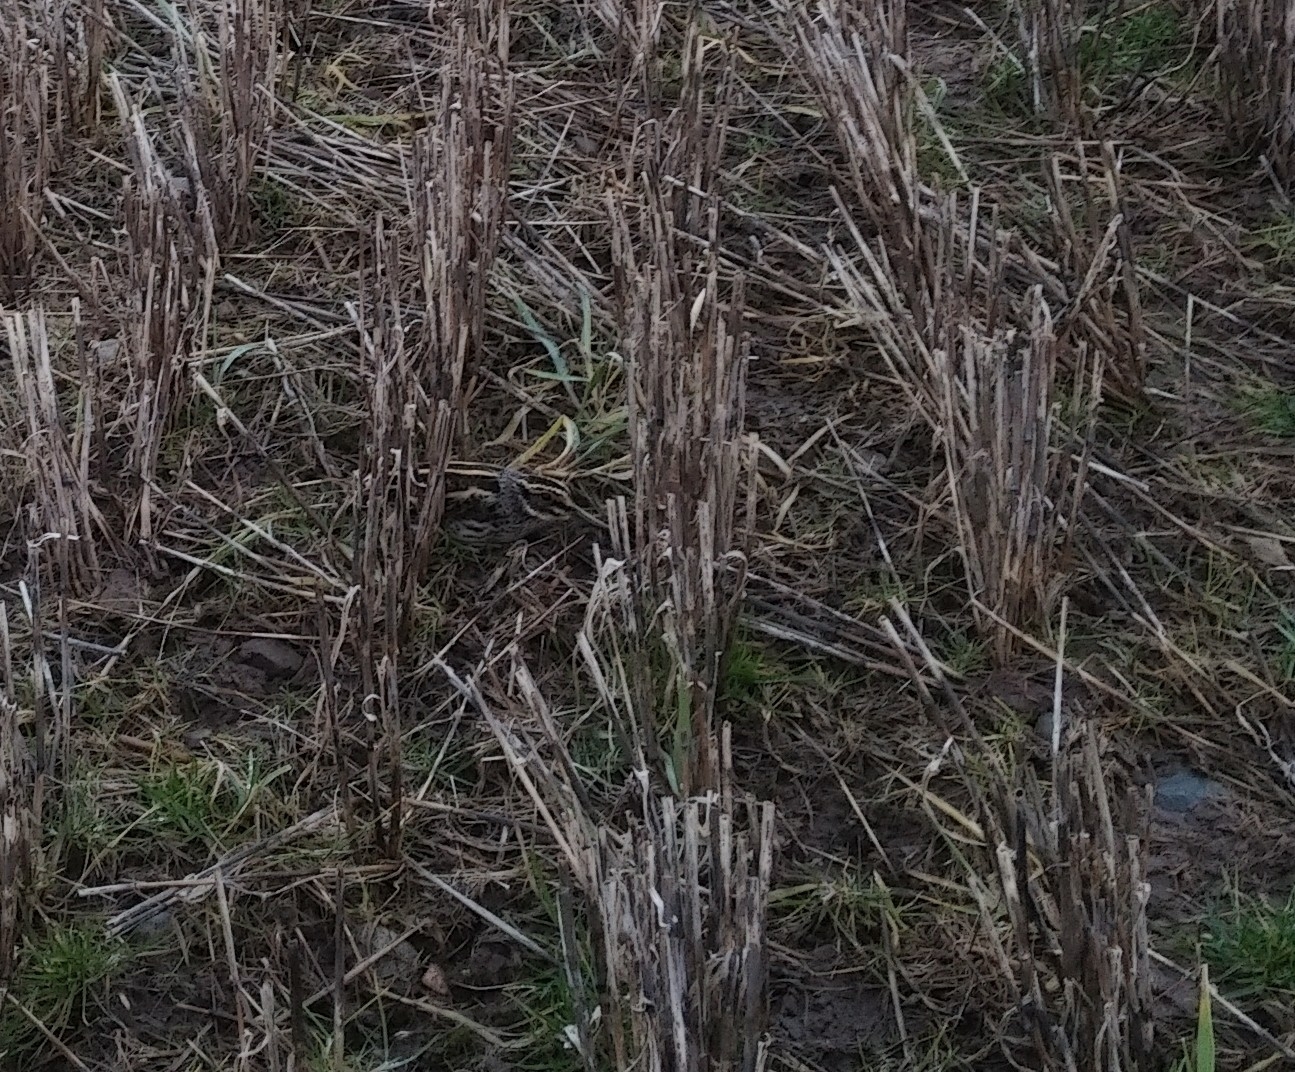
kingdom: Animalia
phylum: Chordata
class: Aves
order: Charadriiformes
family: Scolopacidae
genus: Lymnocryptes
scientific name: Lymnocryptes minimus
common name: Jack snipe
